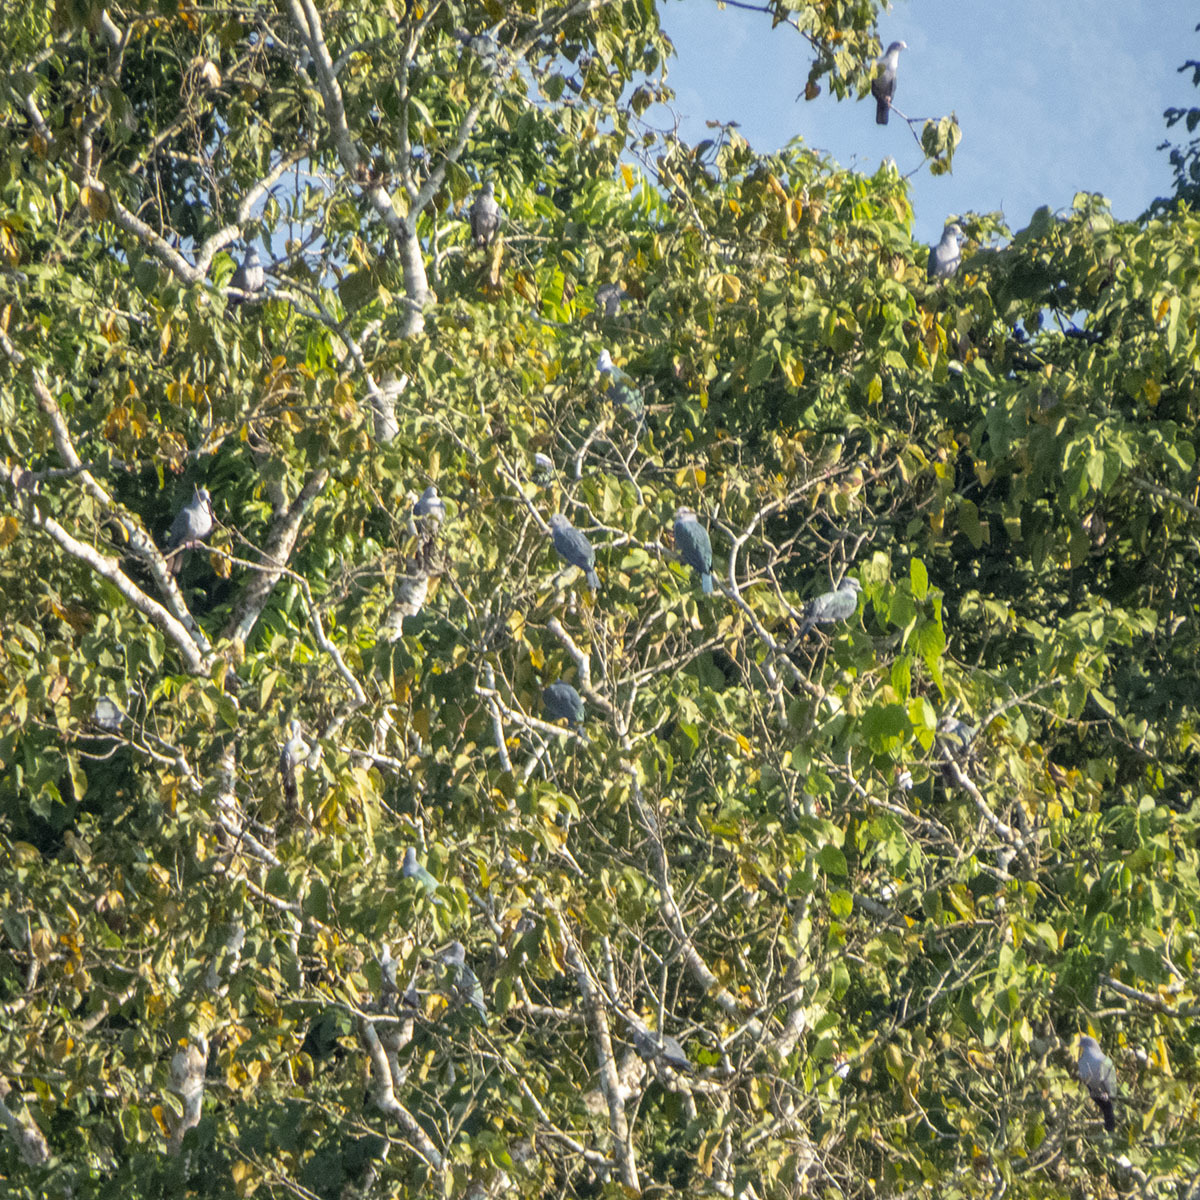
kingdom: Animalia
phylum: Chordata
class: Aves
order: Columbiformes
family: Columbidae
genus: Ducula
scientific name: Ducula aenea
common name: Green imperial pigeon
